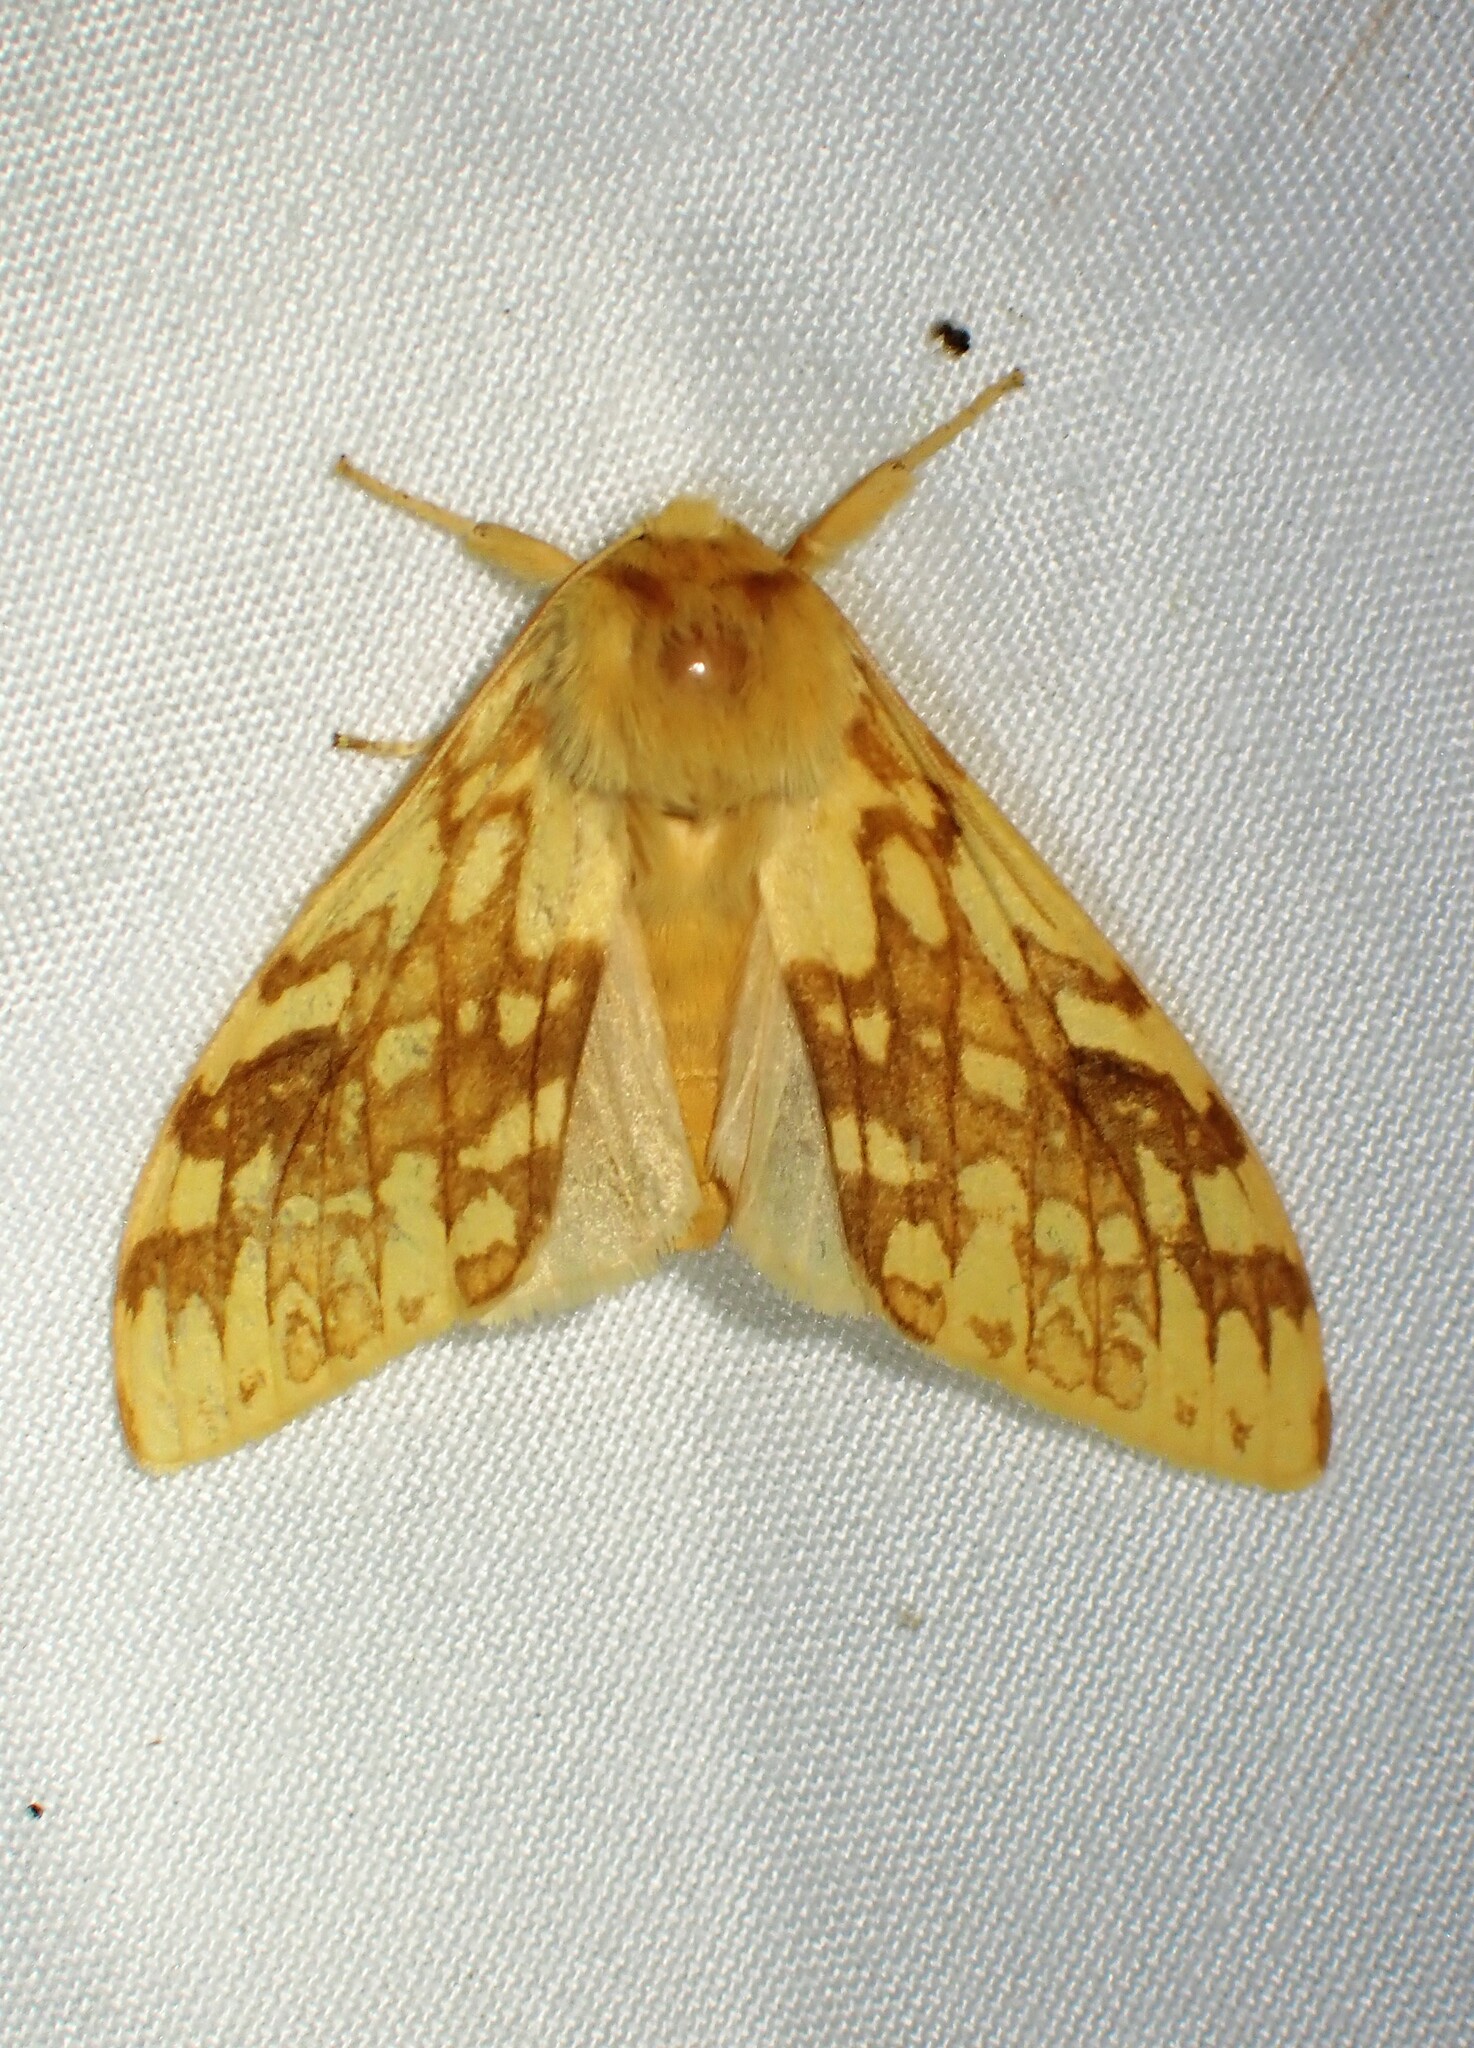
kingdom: Animalia
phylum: Arthropoda
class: Insecta
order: Lepidoptera
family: Erebidae
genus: Lophocampa
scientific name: Lophocampa maculata
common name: Spotted tussock moth
